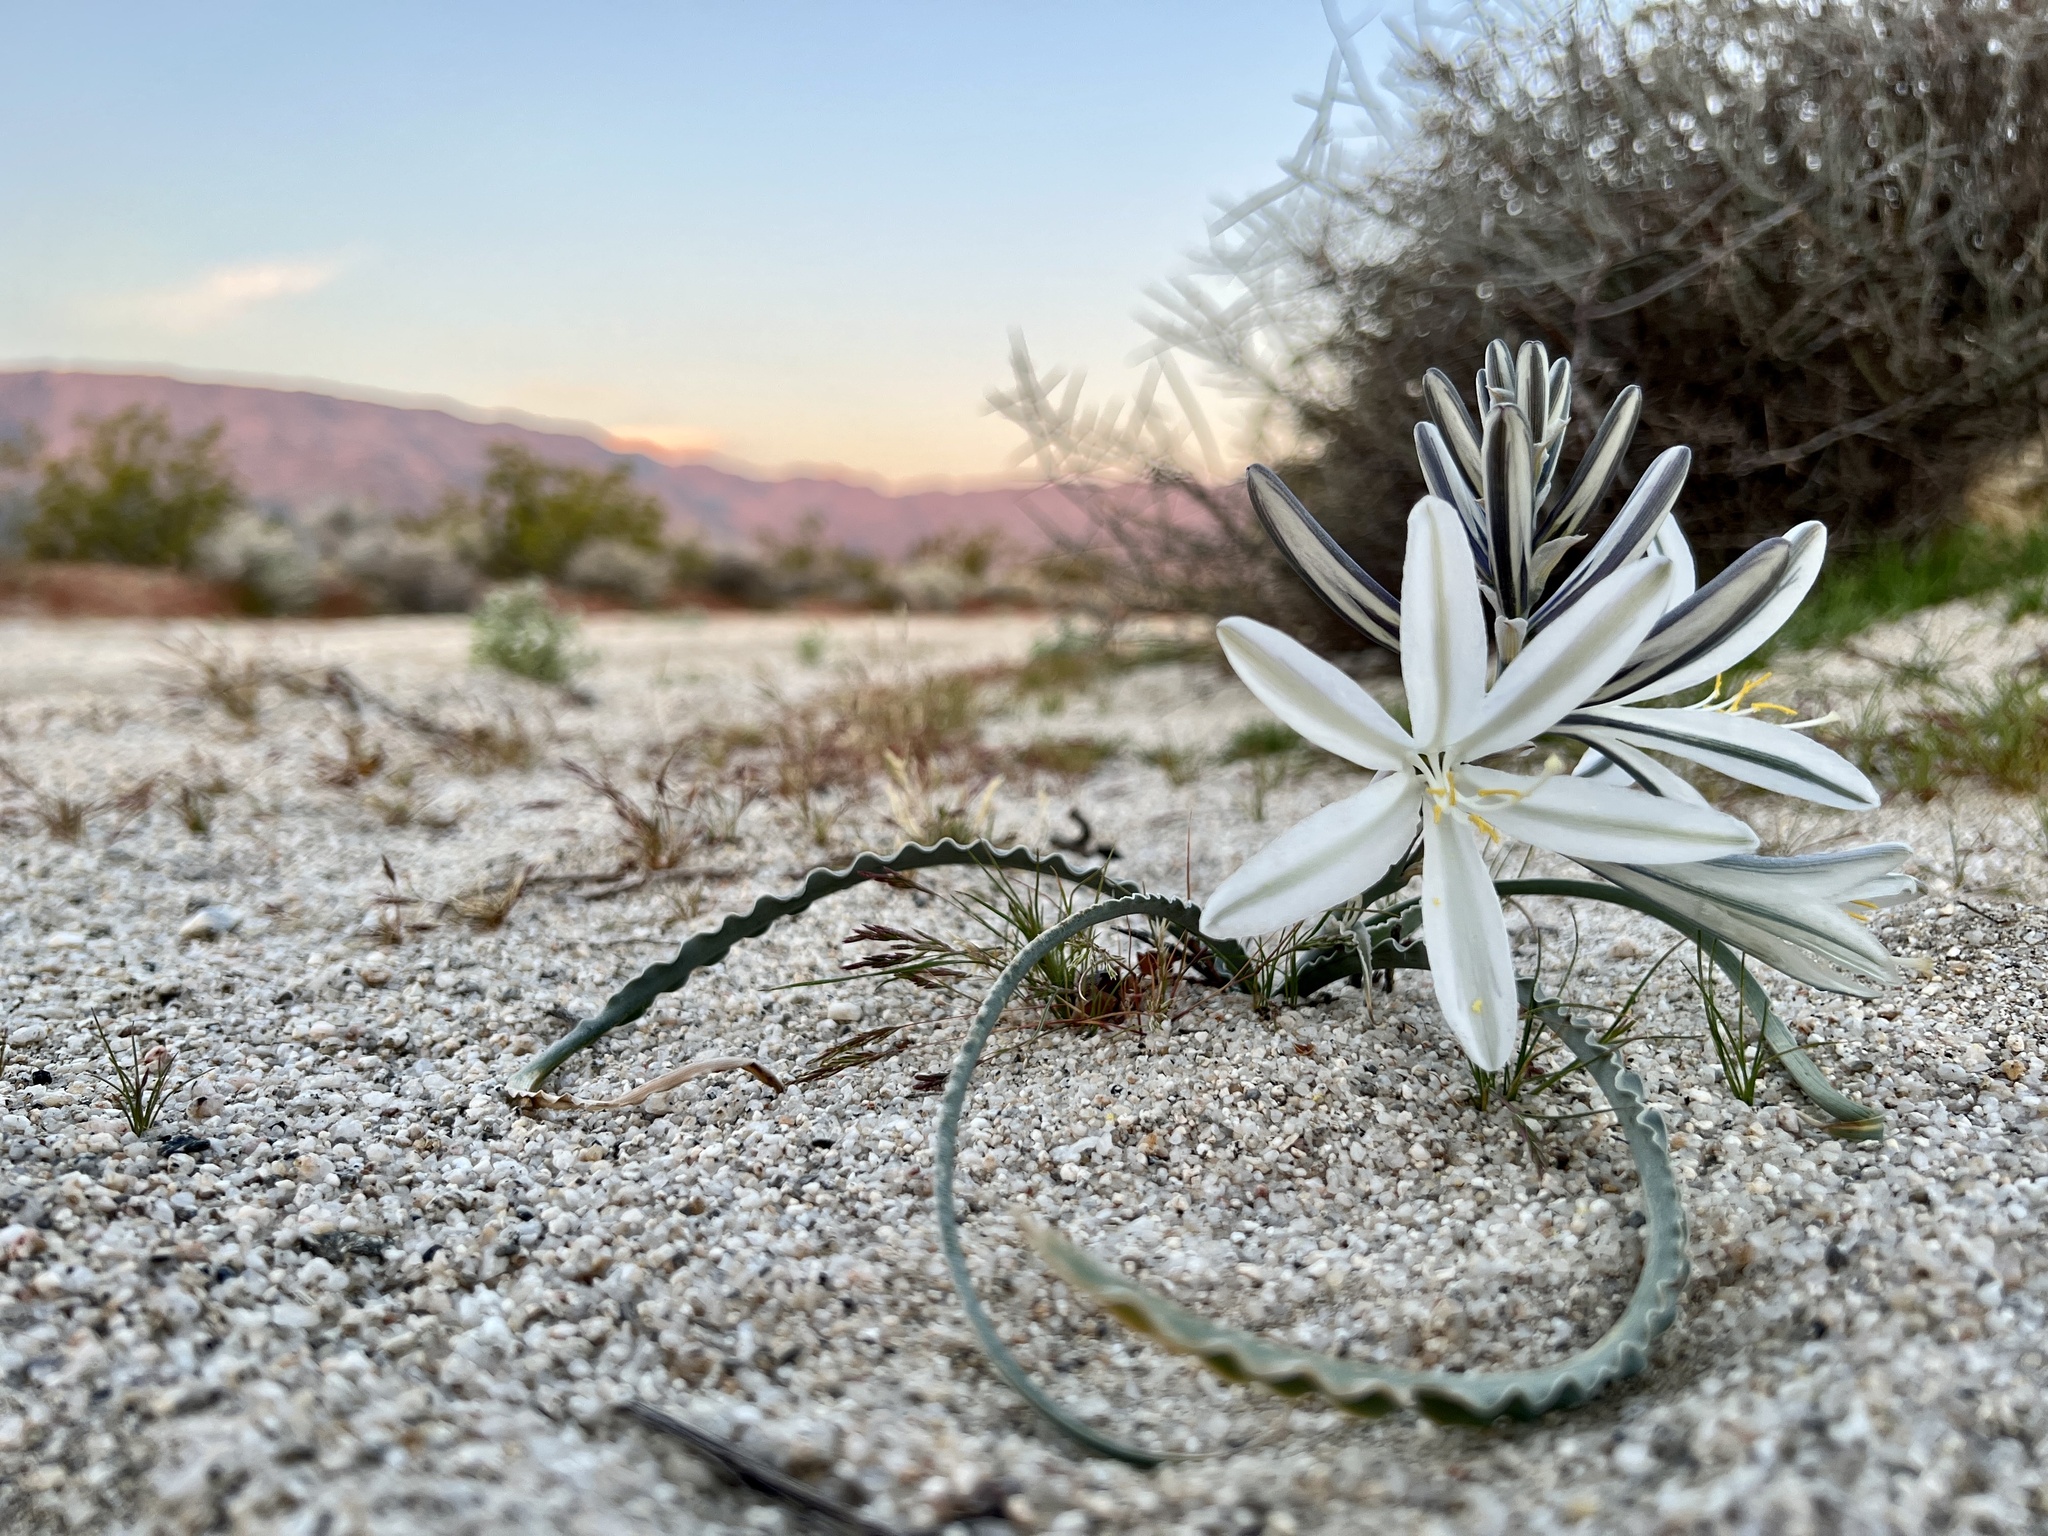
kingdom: Plantae
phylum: Tracheophyta
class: Liliopsida
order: Asparagales
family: Asparagaceae
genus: Hesperocallis
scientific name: Hesperocallis undulata
